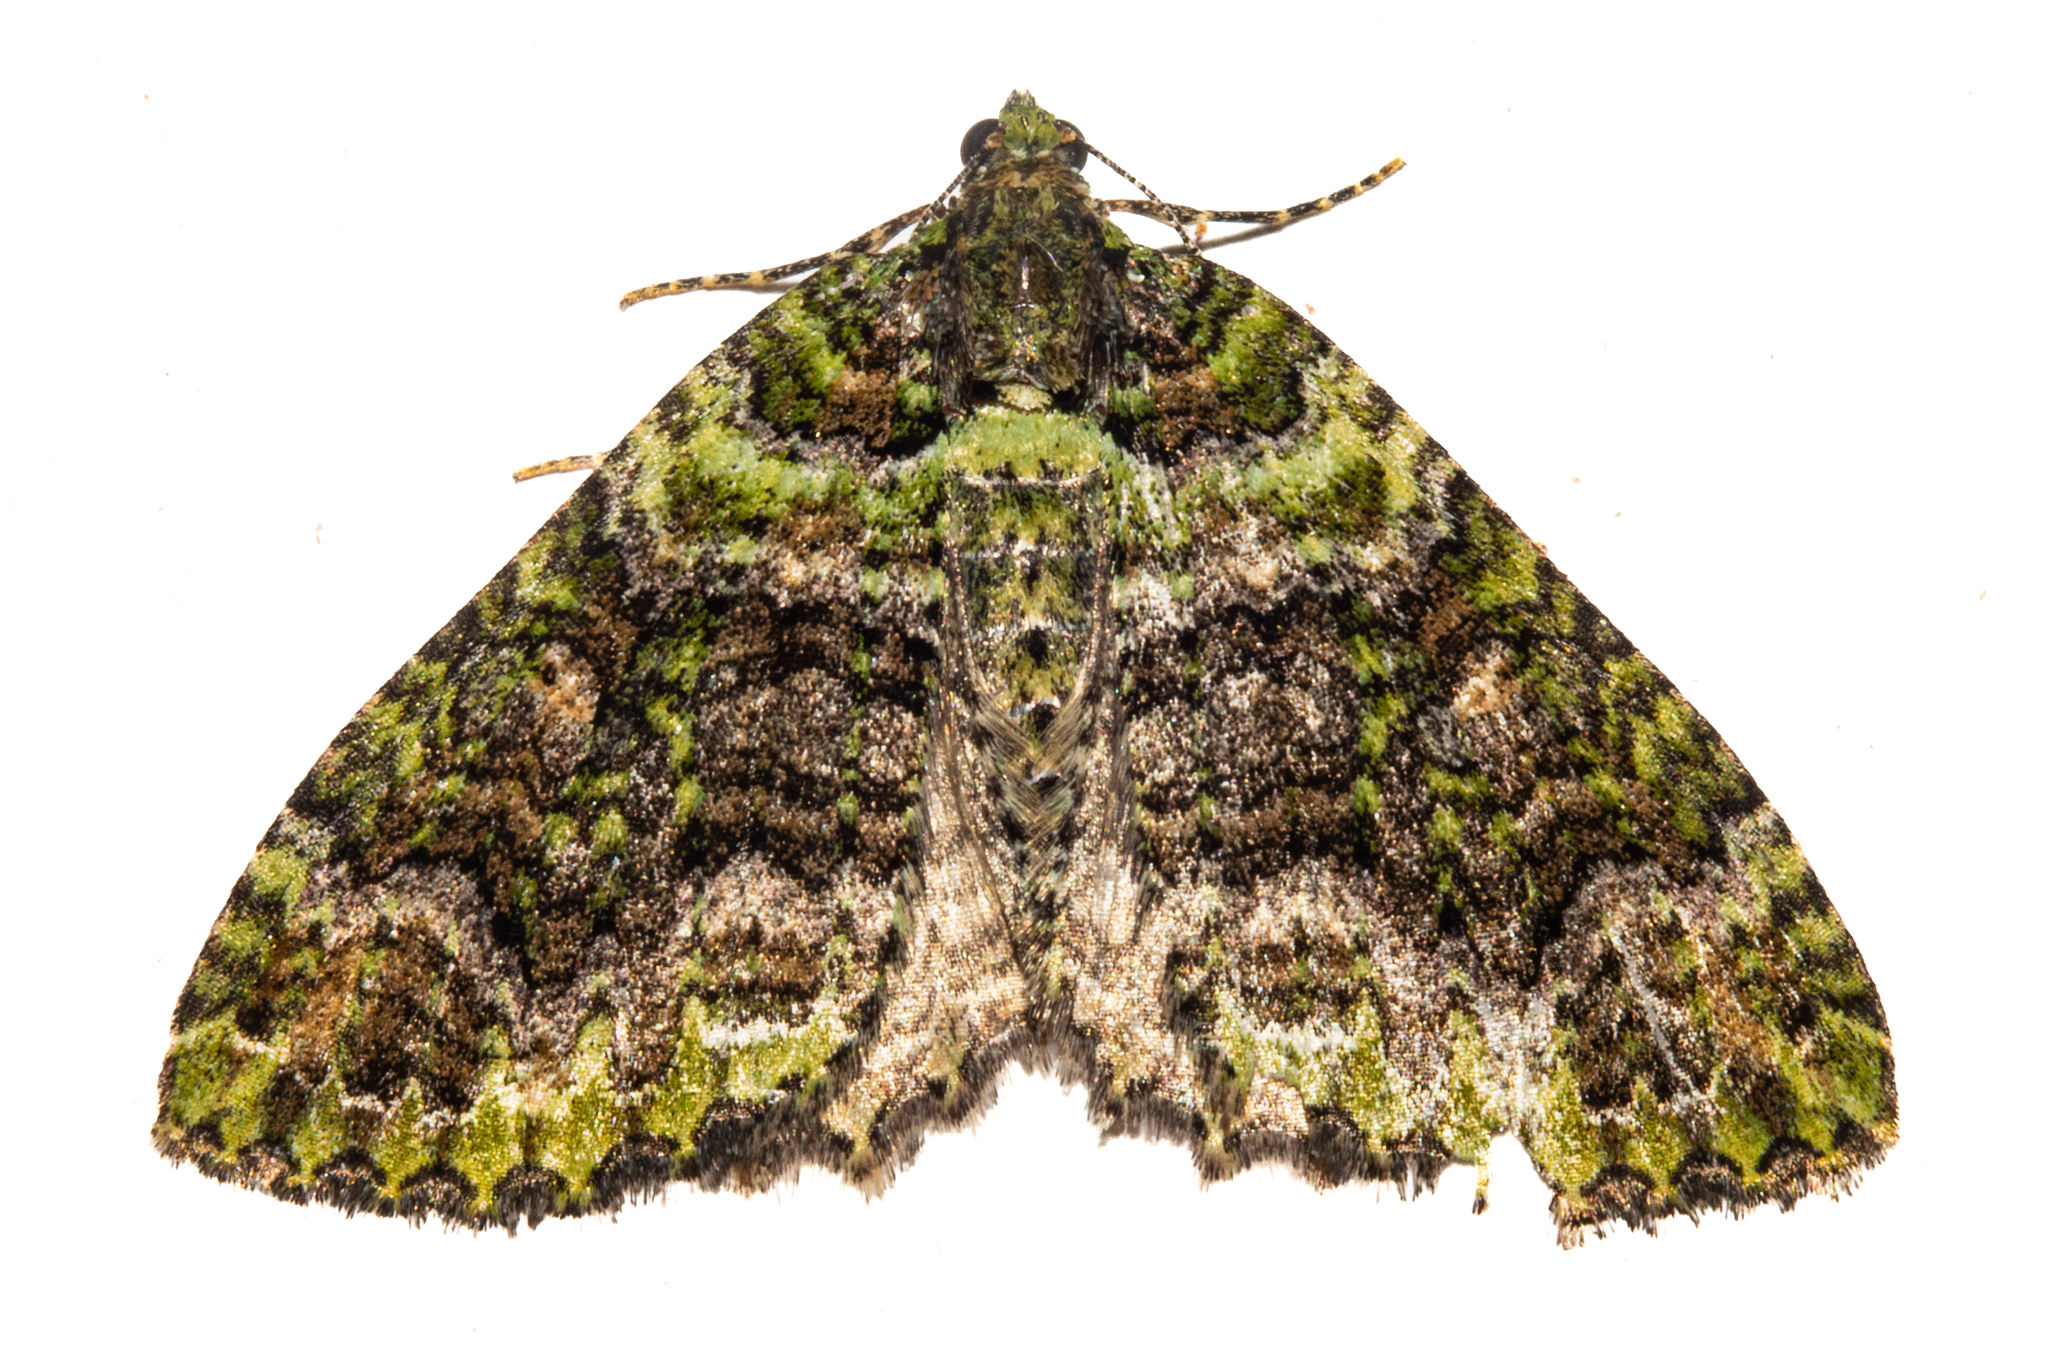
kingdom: Animalia
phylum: Arthropoda
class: Insecta
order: Lepidoptera
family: Geometridae
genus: Austrocidaria
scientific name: Austrocidaria similata
